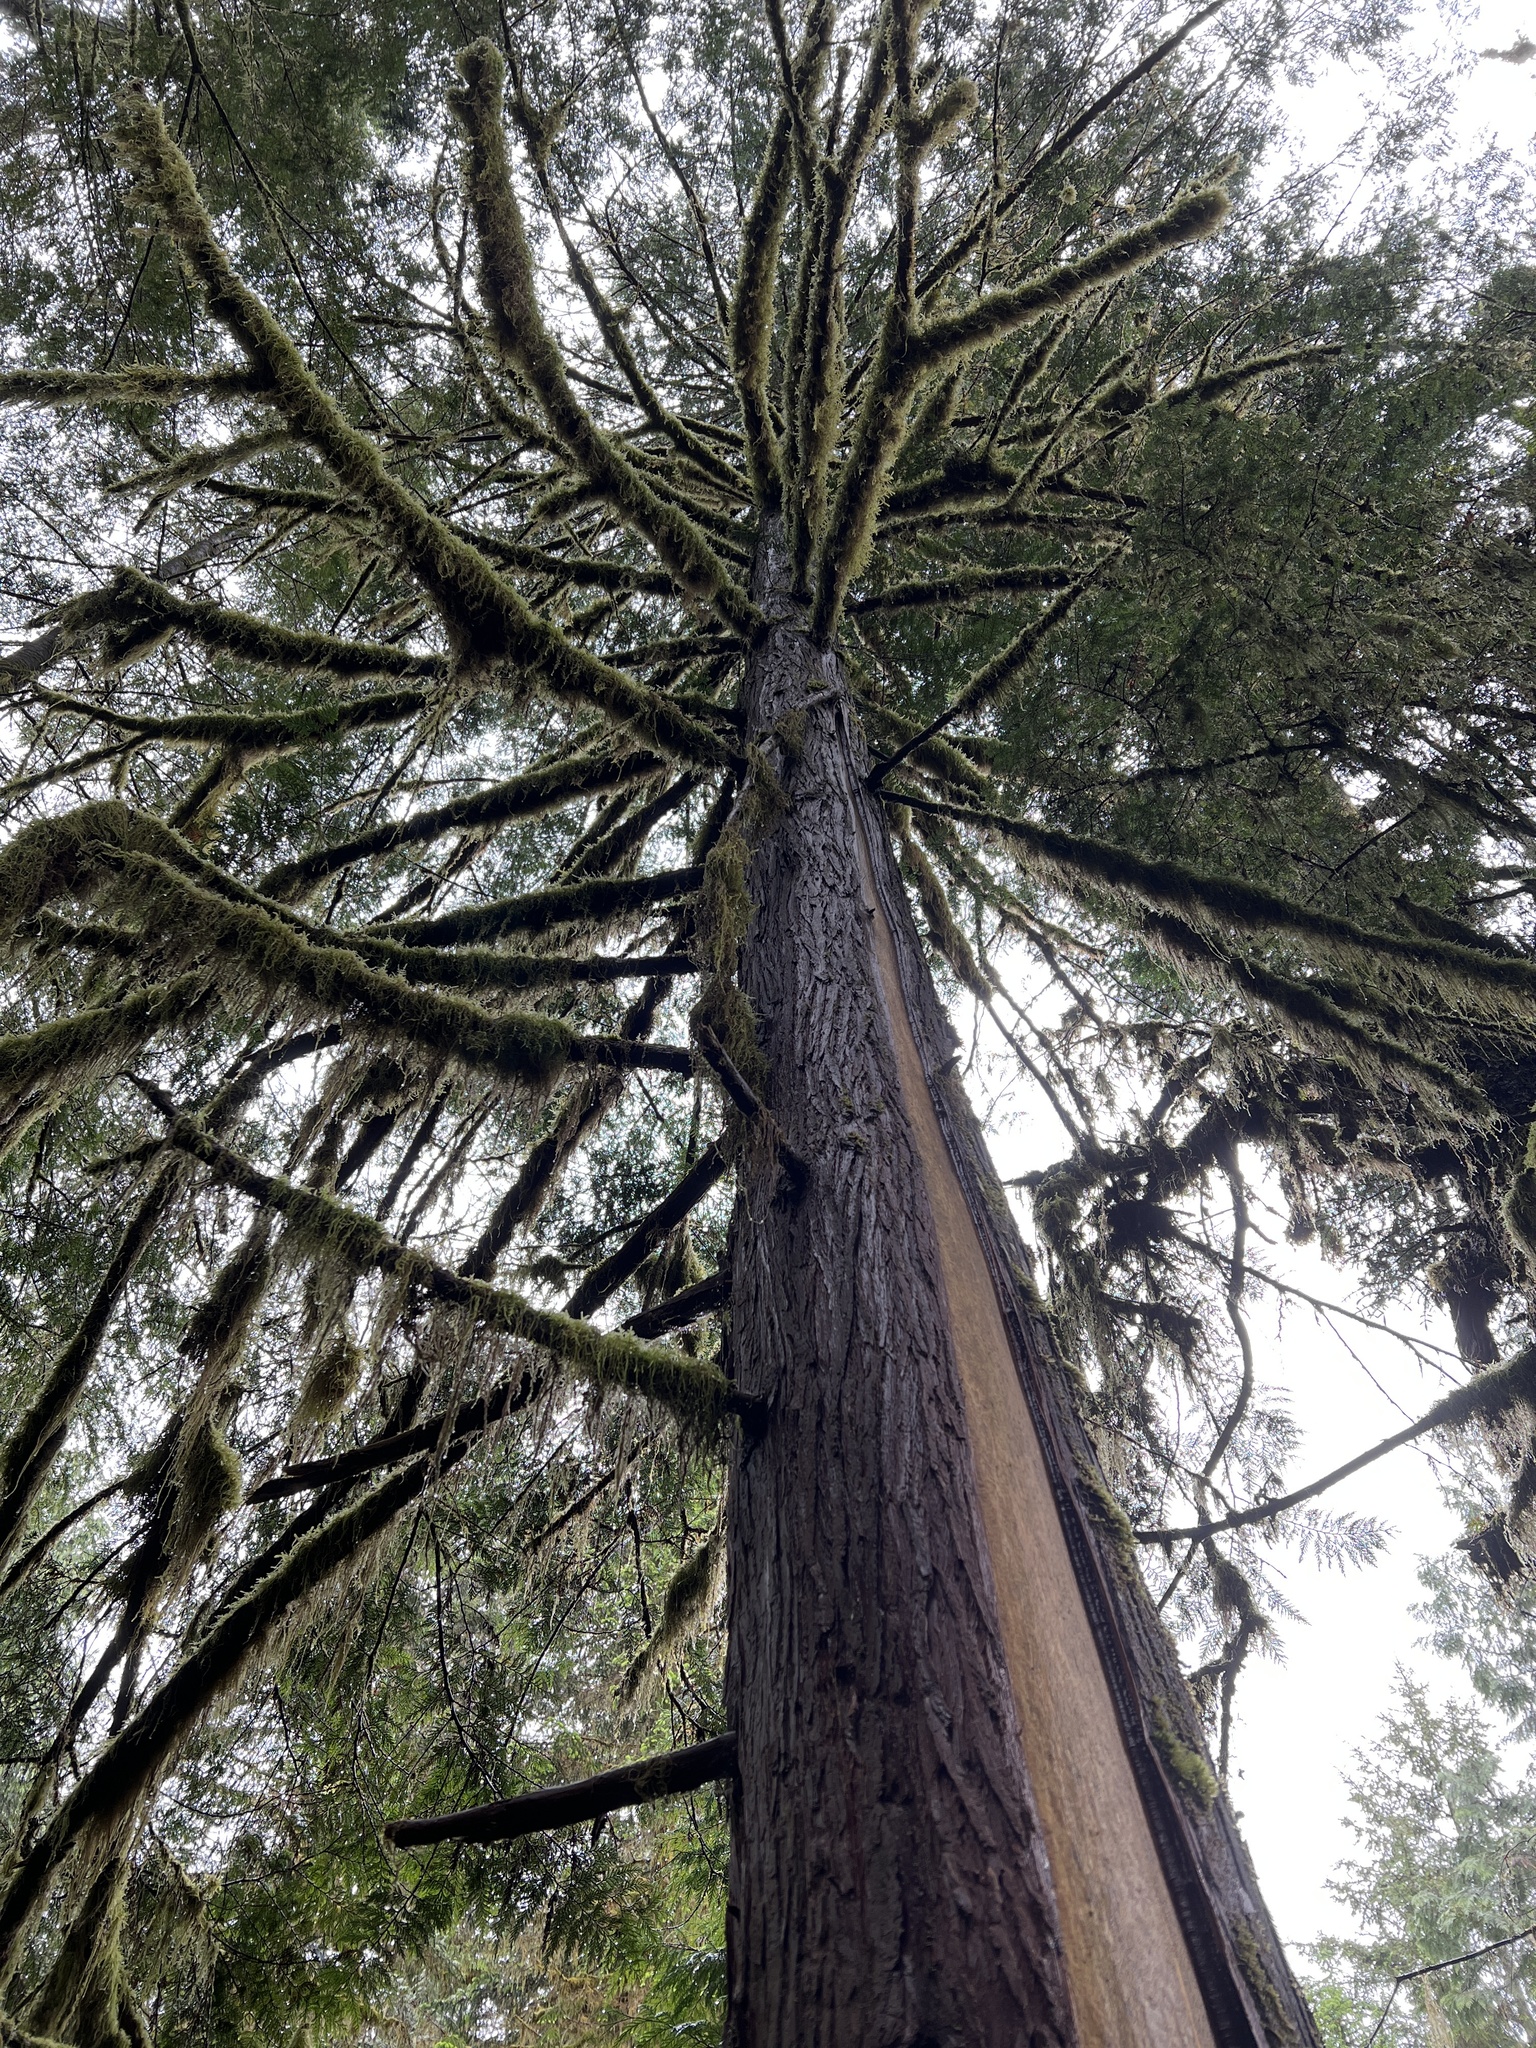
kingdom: Plantae
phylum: Tracheophyta
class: Pinopsida
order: Pinales
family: Cupressaceae
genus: Thuja
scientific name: Thuja plicata
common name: Western red-cedar
